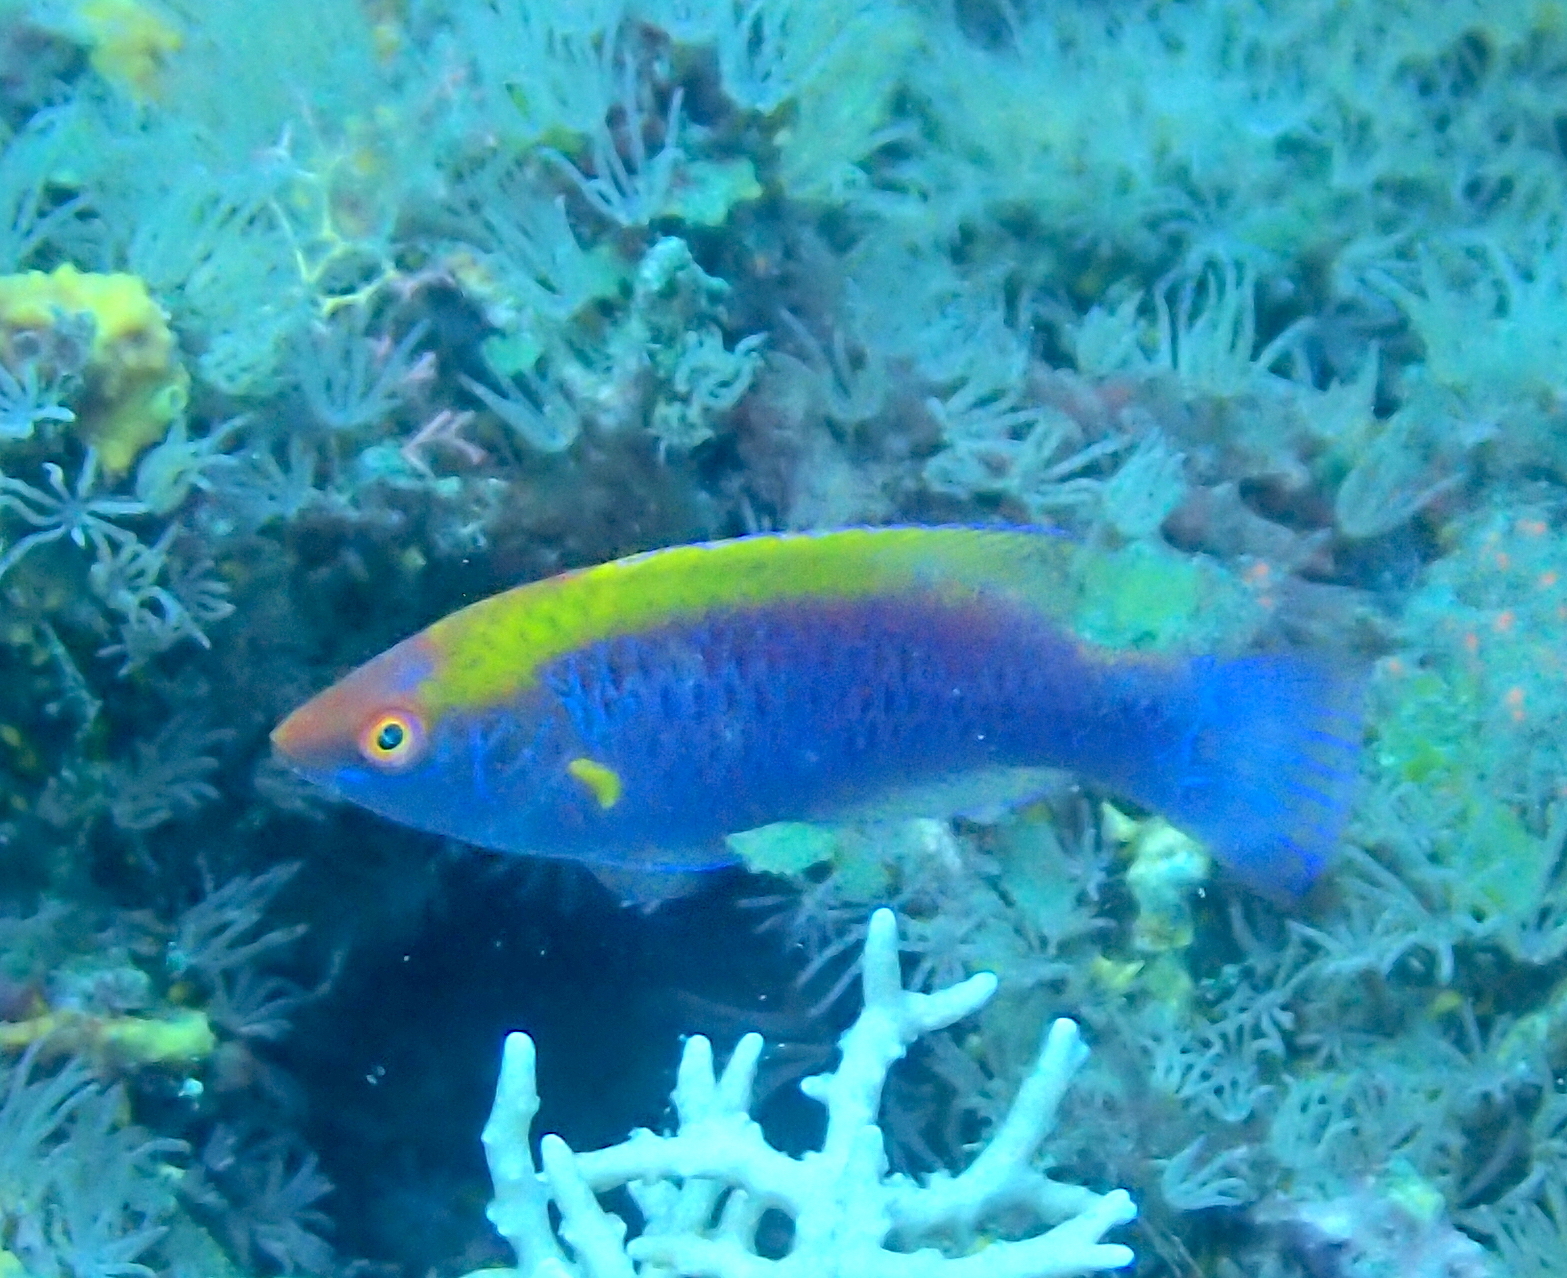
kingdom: Animalia
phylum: Chordata
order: Perciformes
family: Labridae
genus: Cirrhilabrus
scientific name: Cirrhilabrus lubbocki
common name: Lubbock's wrasse
